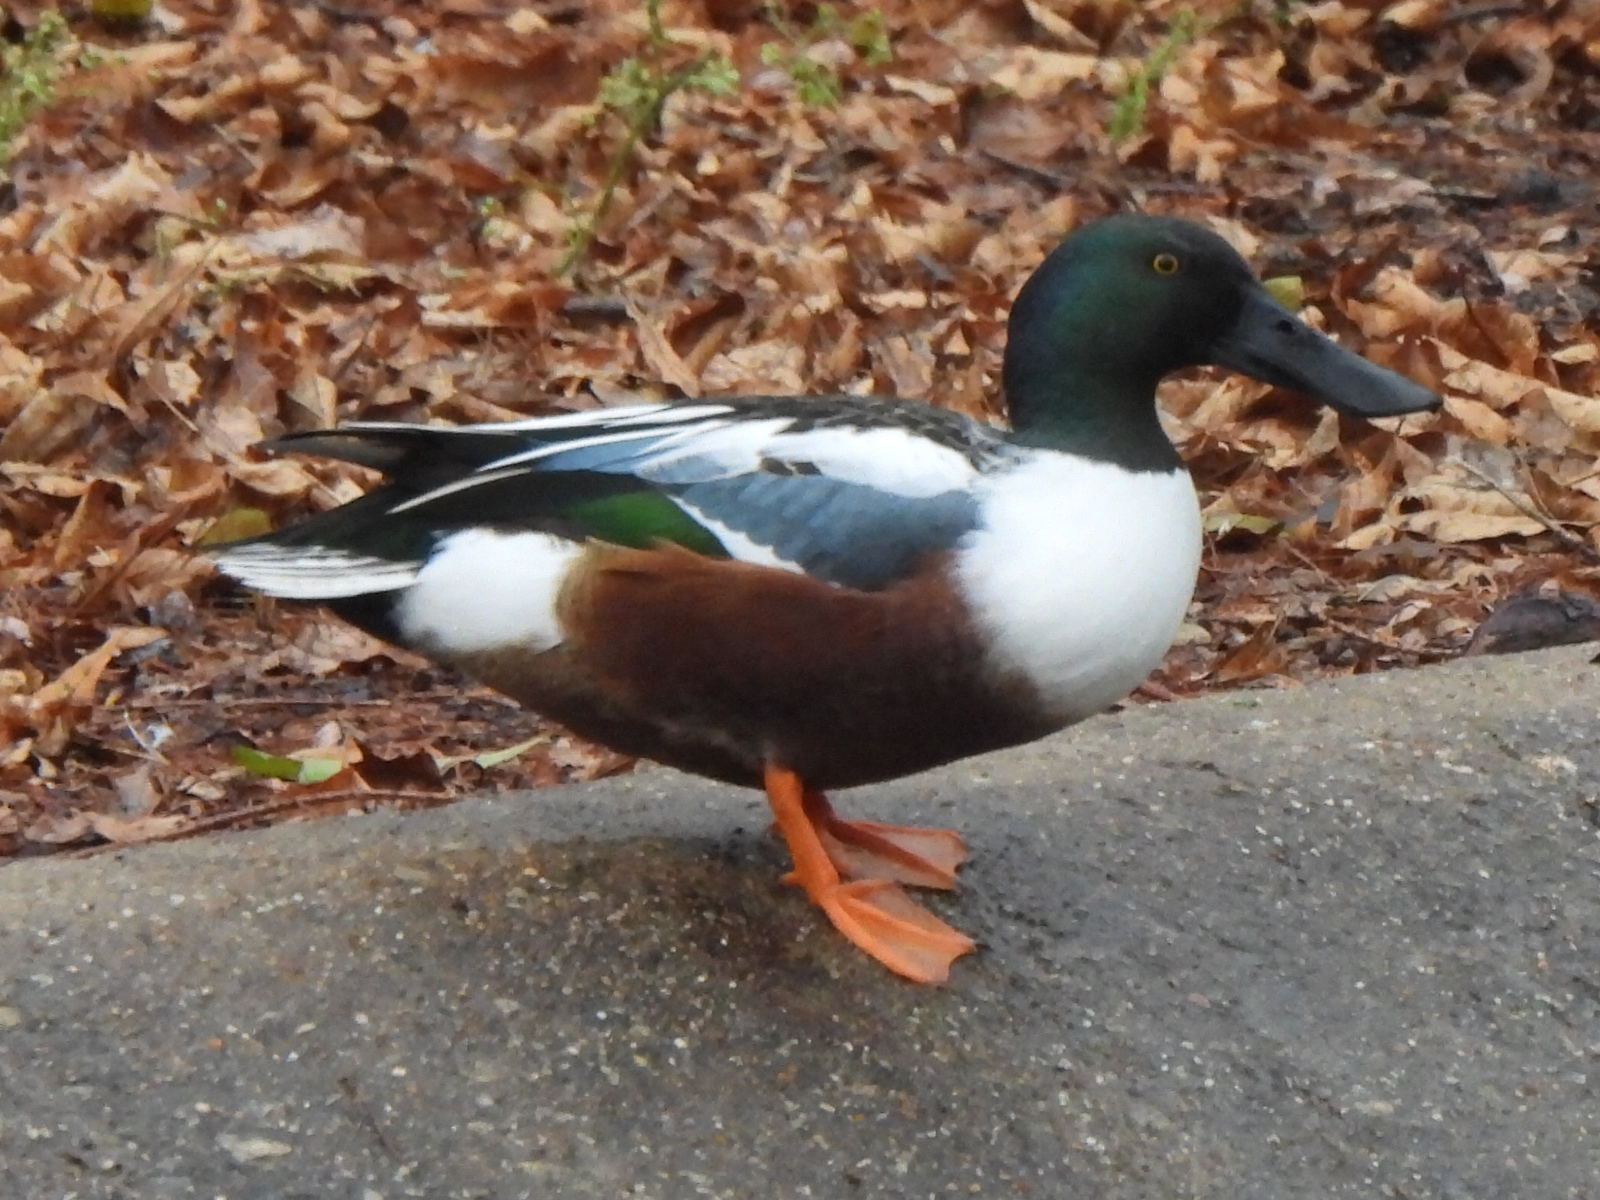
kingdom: Animalia
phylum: Chordata
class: Aves
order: Anseriformes
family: Anatidae
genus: Spatula
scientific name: Spatula clypeata
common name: Northern shoveler
